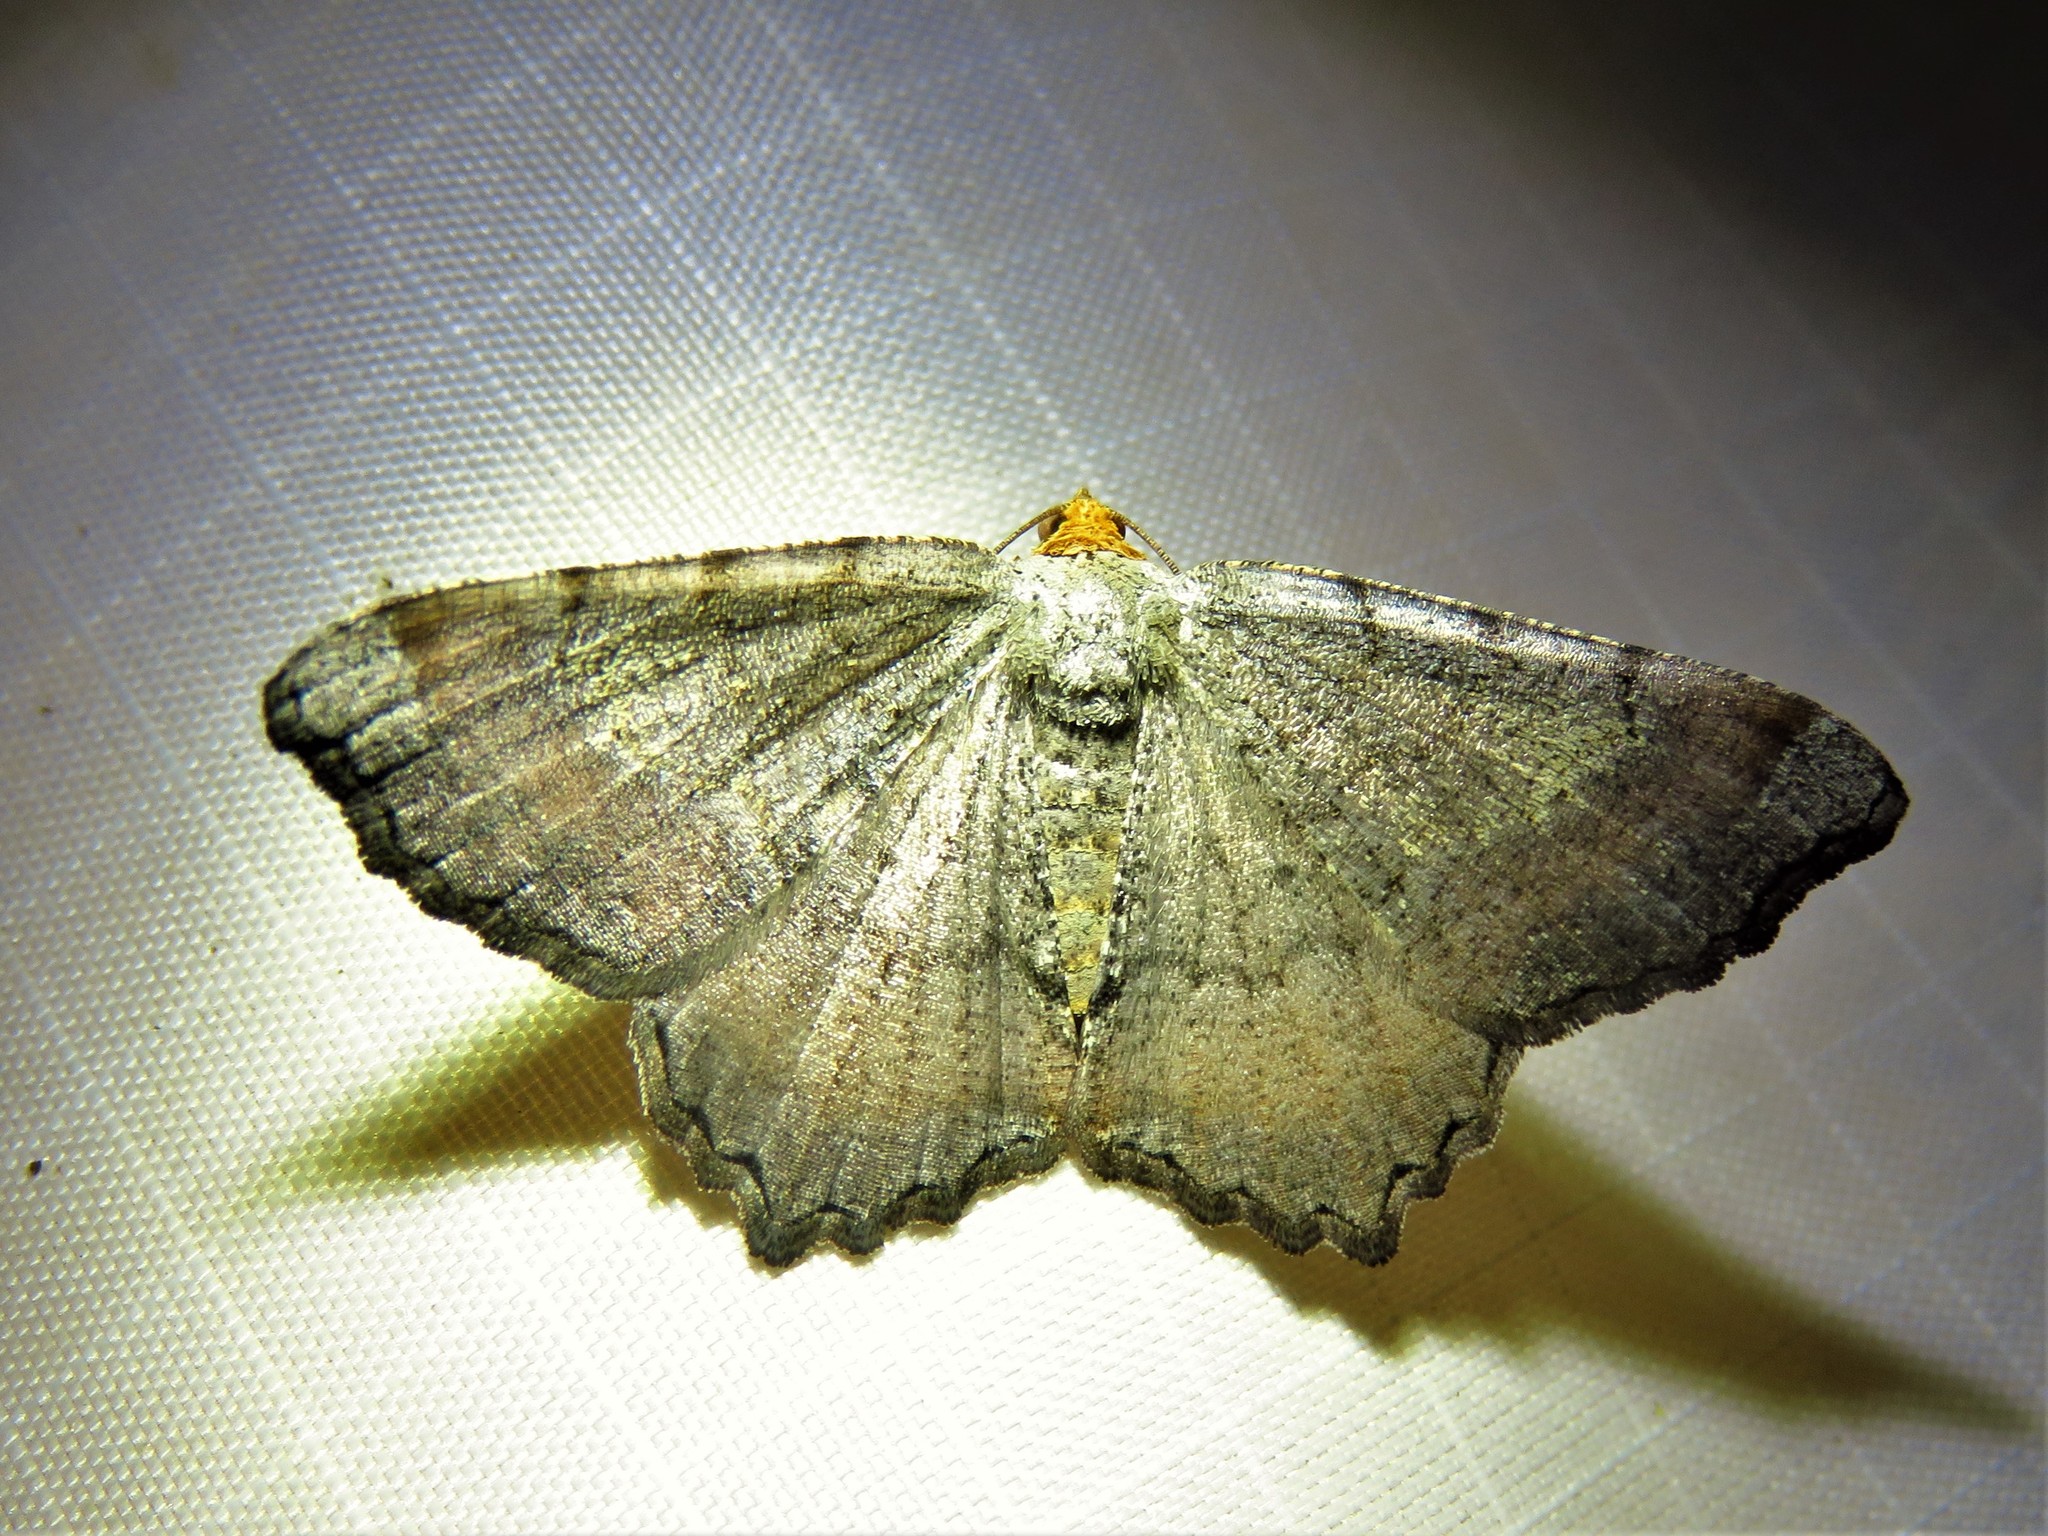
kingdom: Animalia
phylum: Arthropoda
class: Insecta
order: Lepidoptera
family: Geometridae
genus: Macaria
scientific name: Macaria transitaria
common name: Blurry chocolate angle
